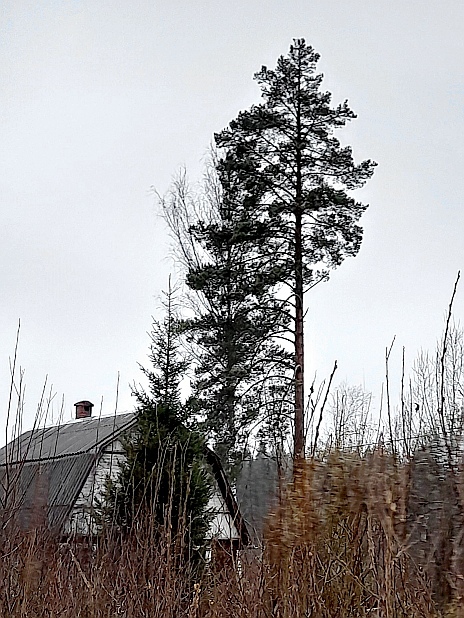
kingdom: Plantae
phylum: Tracheophyta
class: Pinopsida
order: Pinales
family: Pinaceae
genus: Pinus
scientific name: Pinus sylvestris
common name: Scots pine
